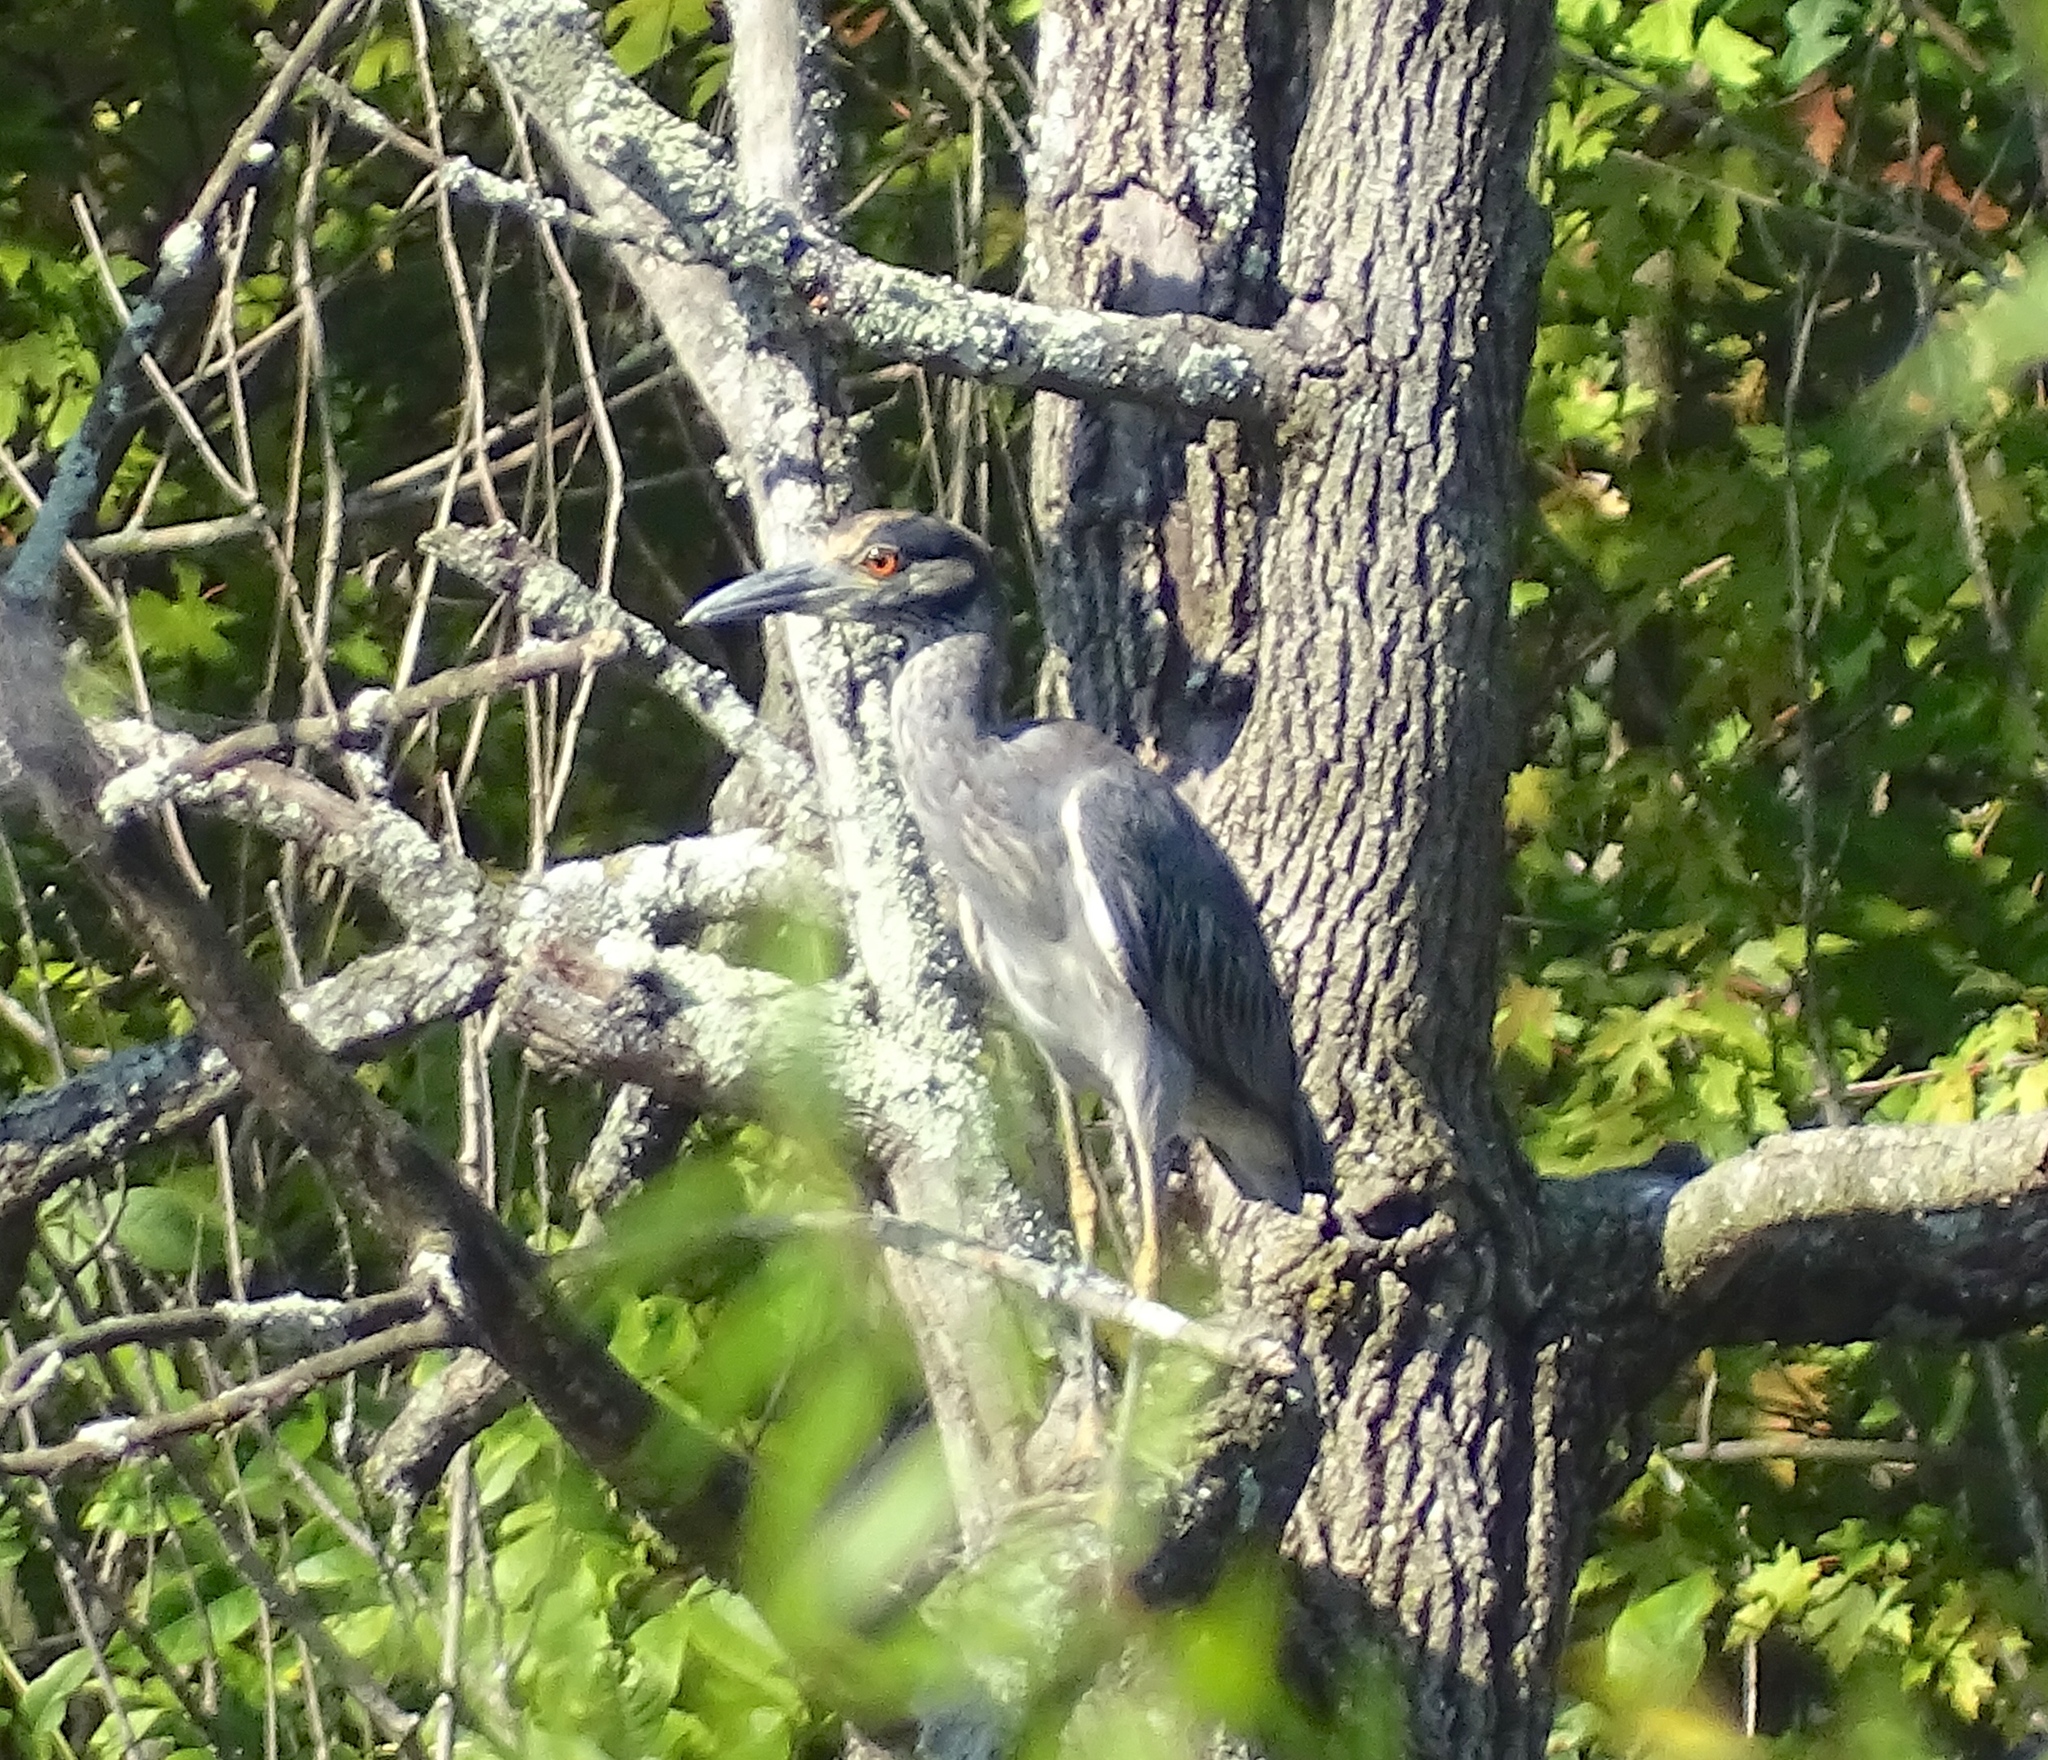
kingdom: Animalia
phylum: Chordata
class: Aves
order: Pelecaniformes
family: Ardeidae
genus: Nyctanassa
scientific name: Nyctanassa violacea
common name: Yellow-crowned night heron
